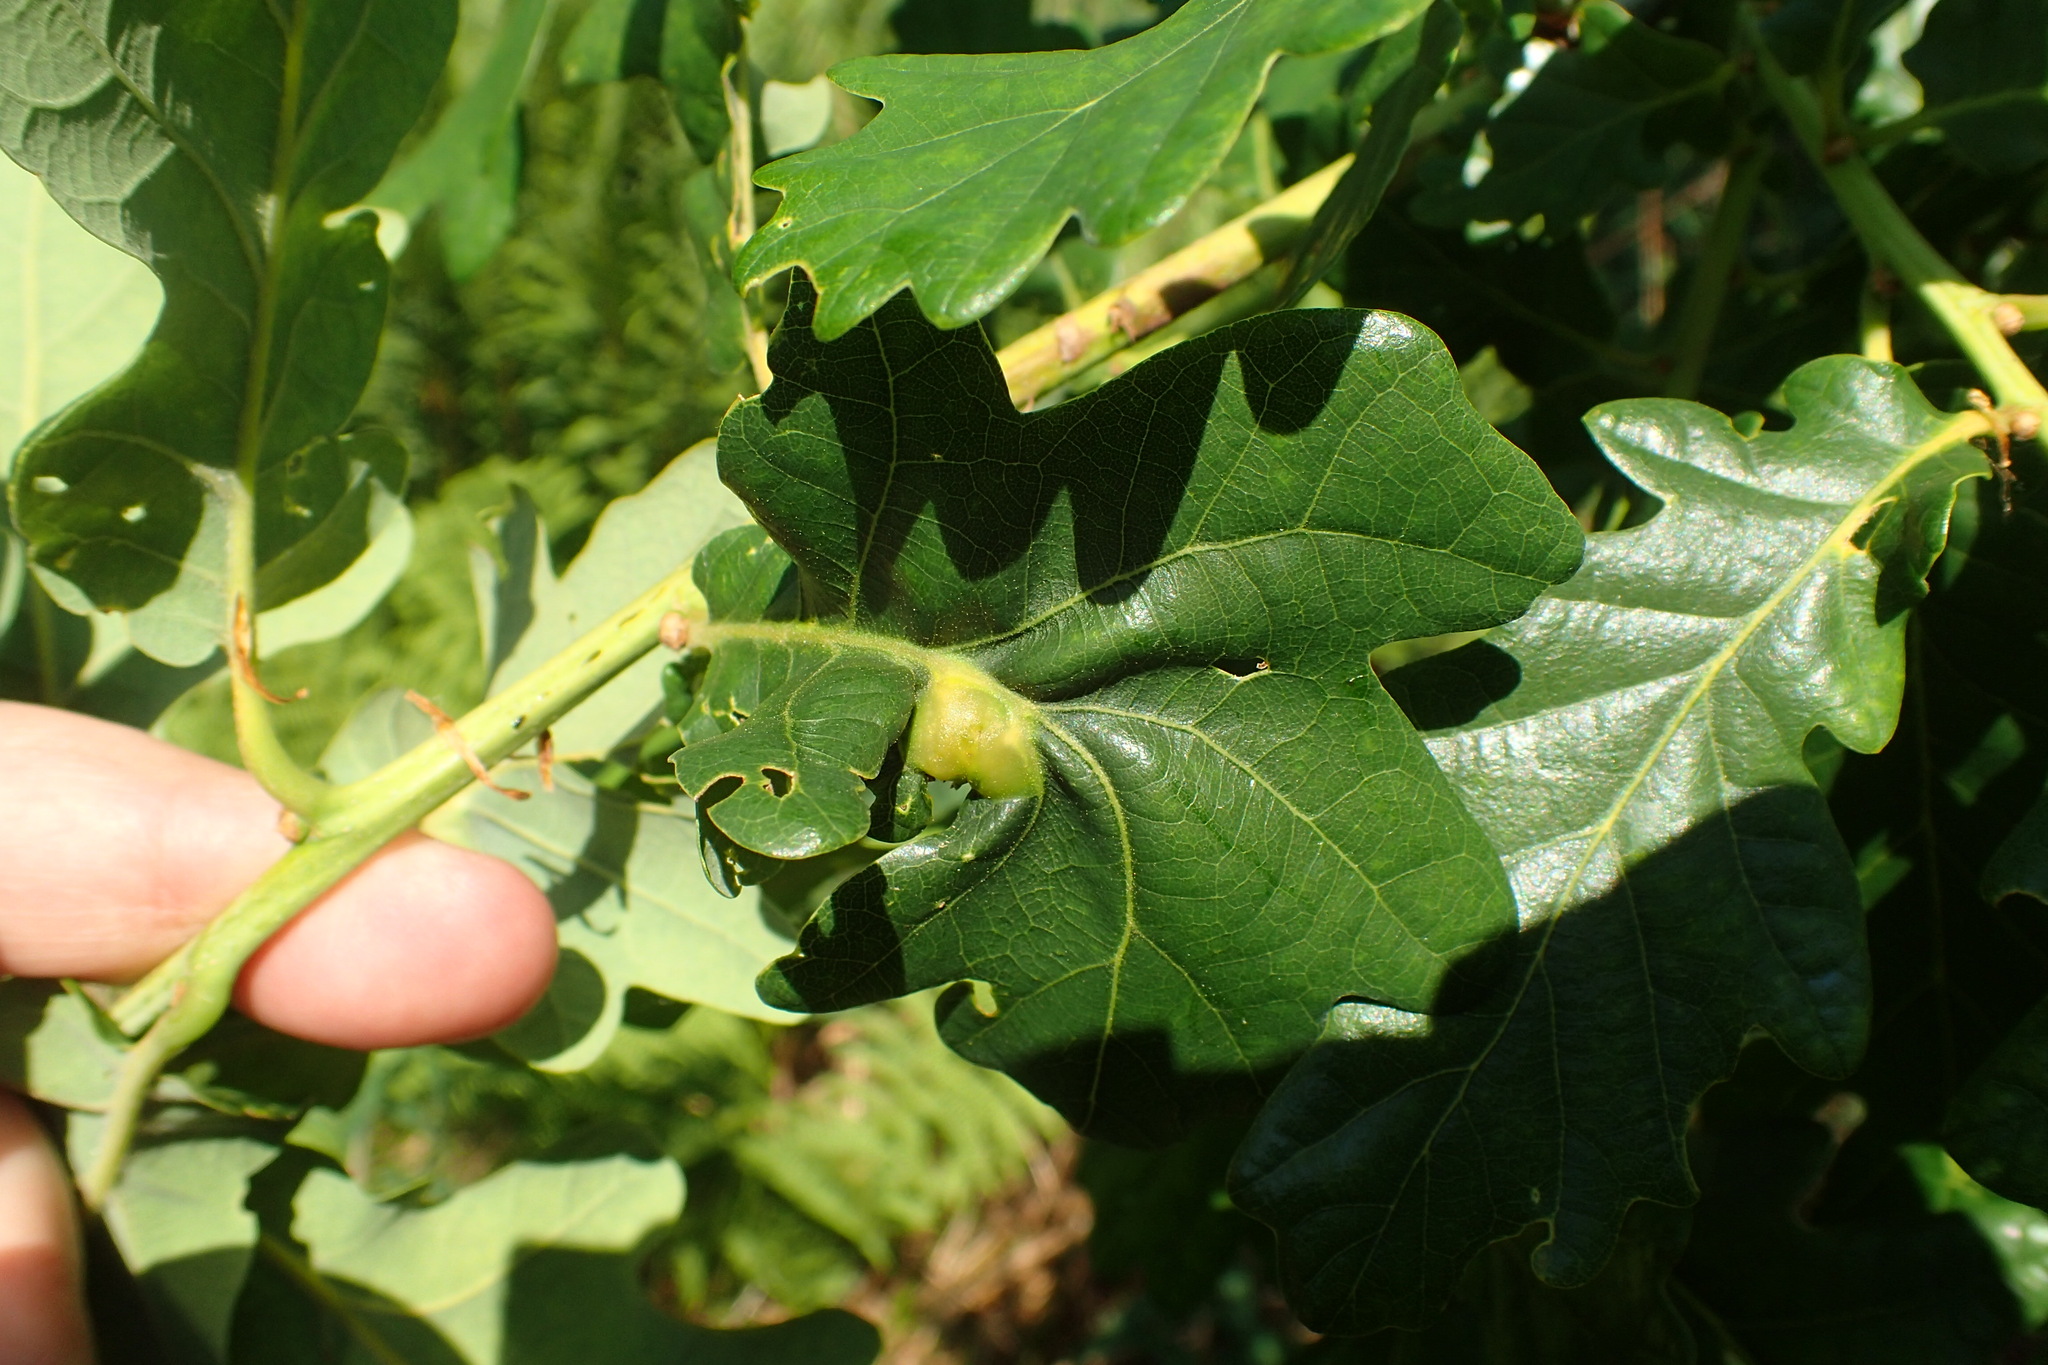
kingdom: Animalia
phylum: Arthropoda
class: Insecta
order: Hymenoptera
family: Cynipidae
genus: Andricus
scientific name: Andricus curvator
